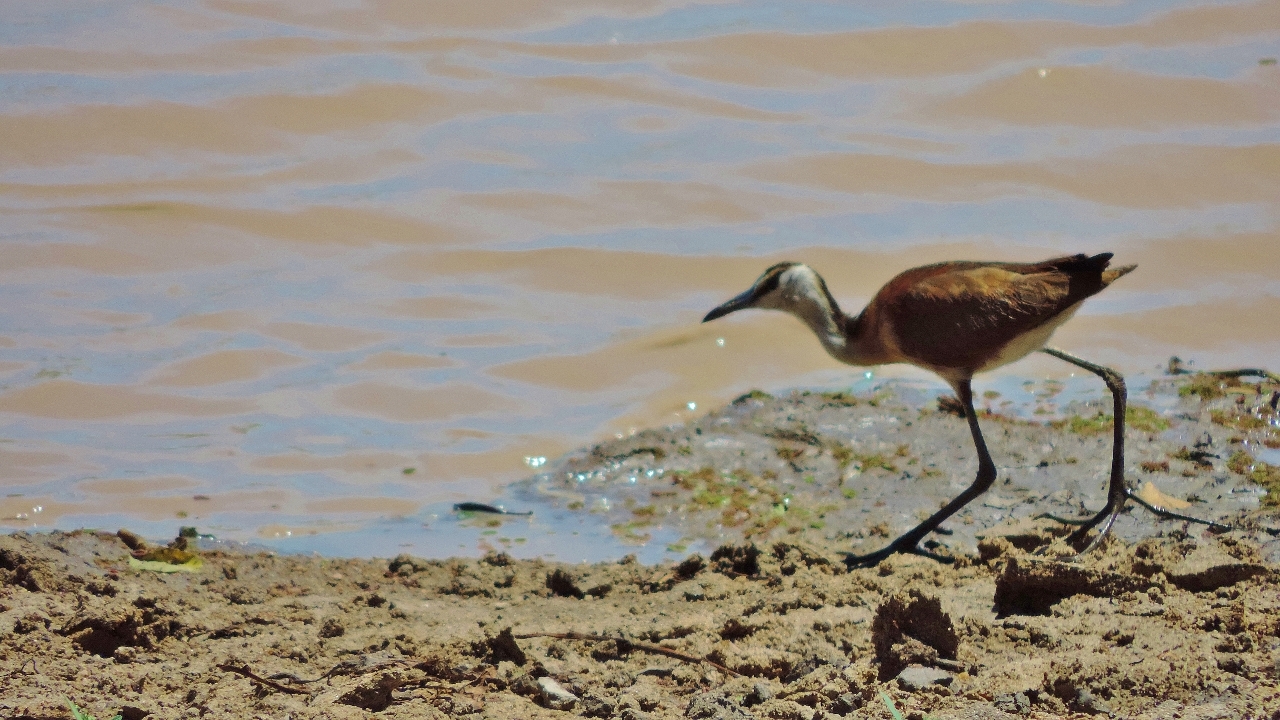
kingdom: Animalia
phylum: Chordata
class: Aves
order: Charadriiformes
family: Jacanidae
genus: Actophilornis
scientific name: Actophilornis africanus
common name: African jacana
